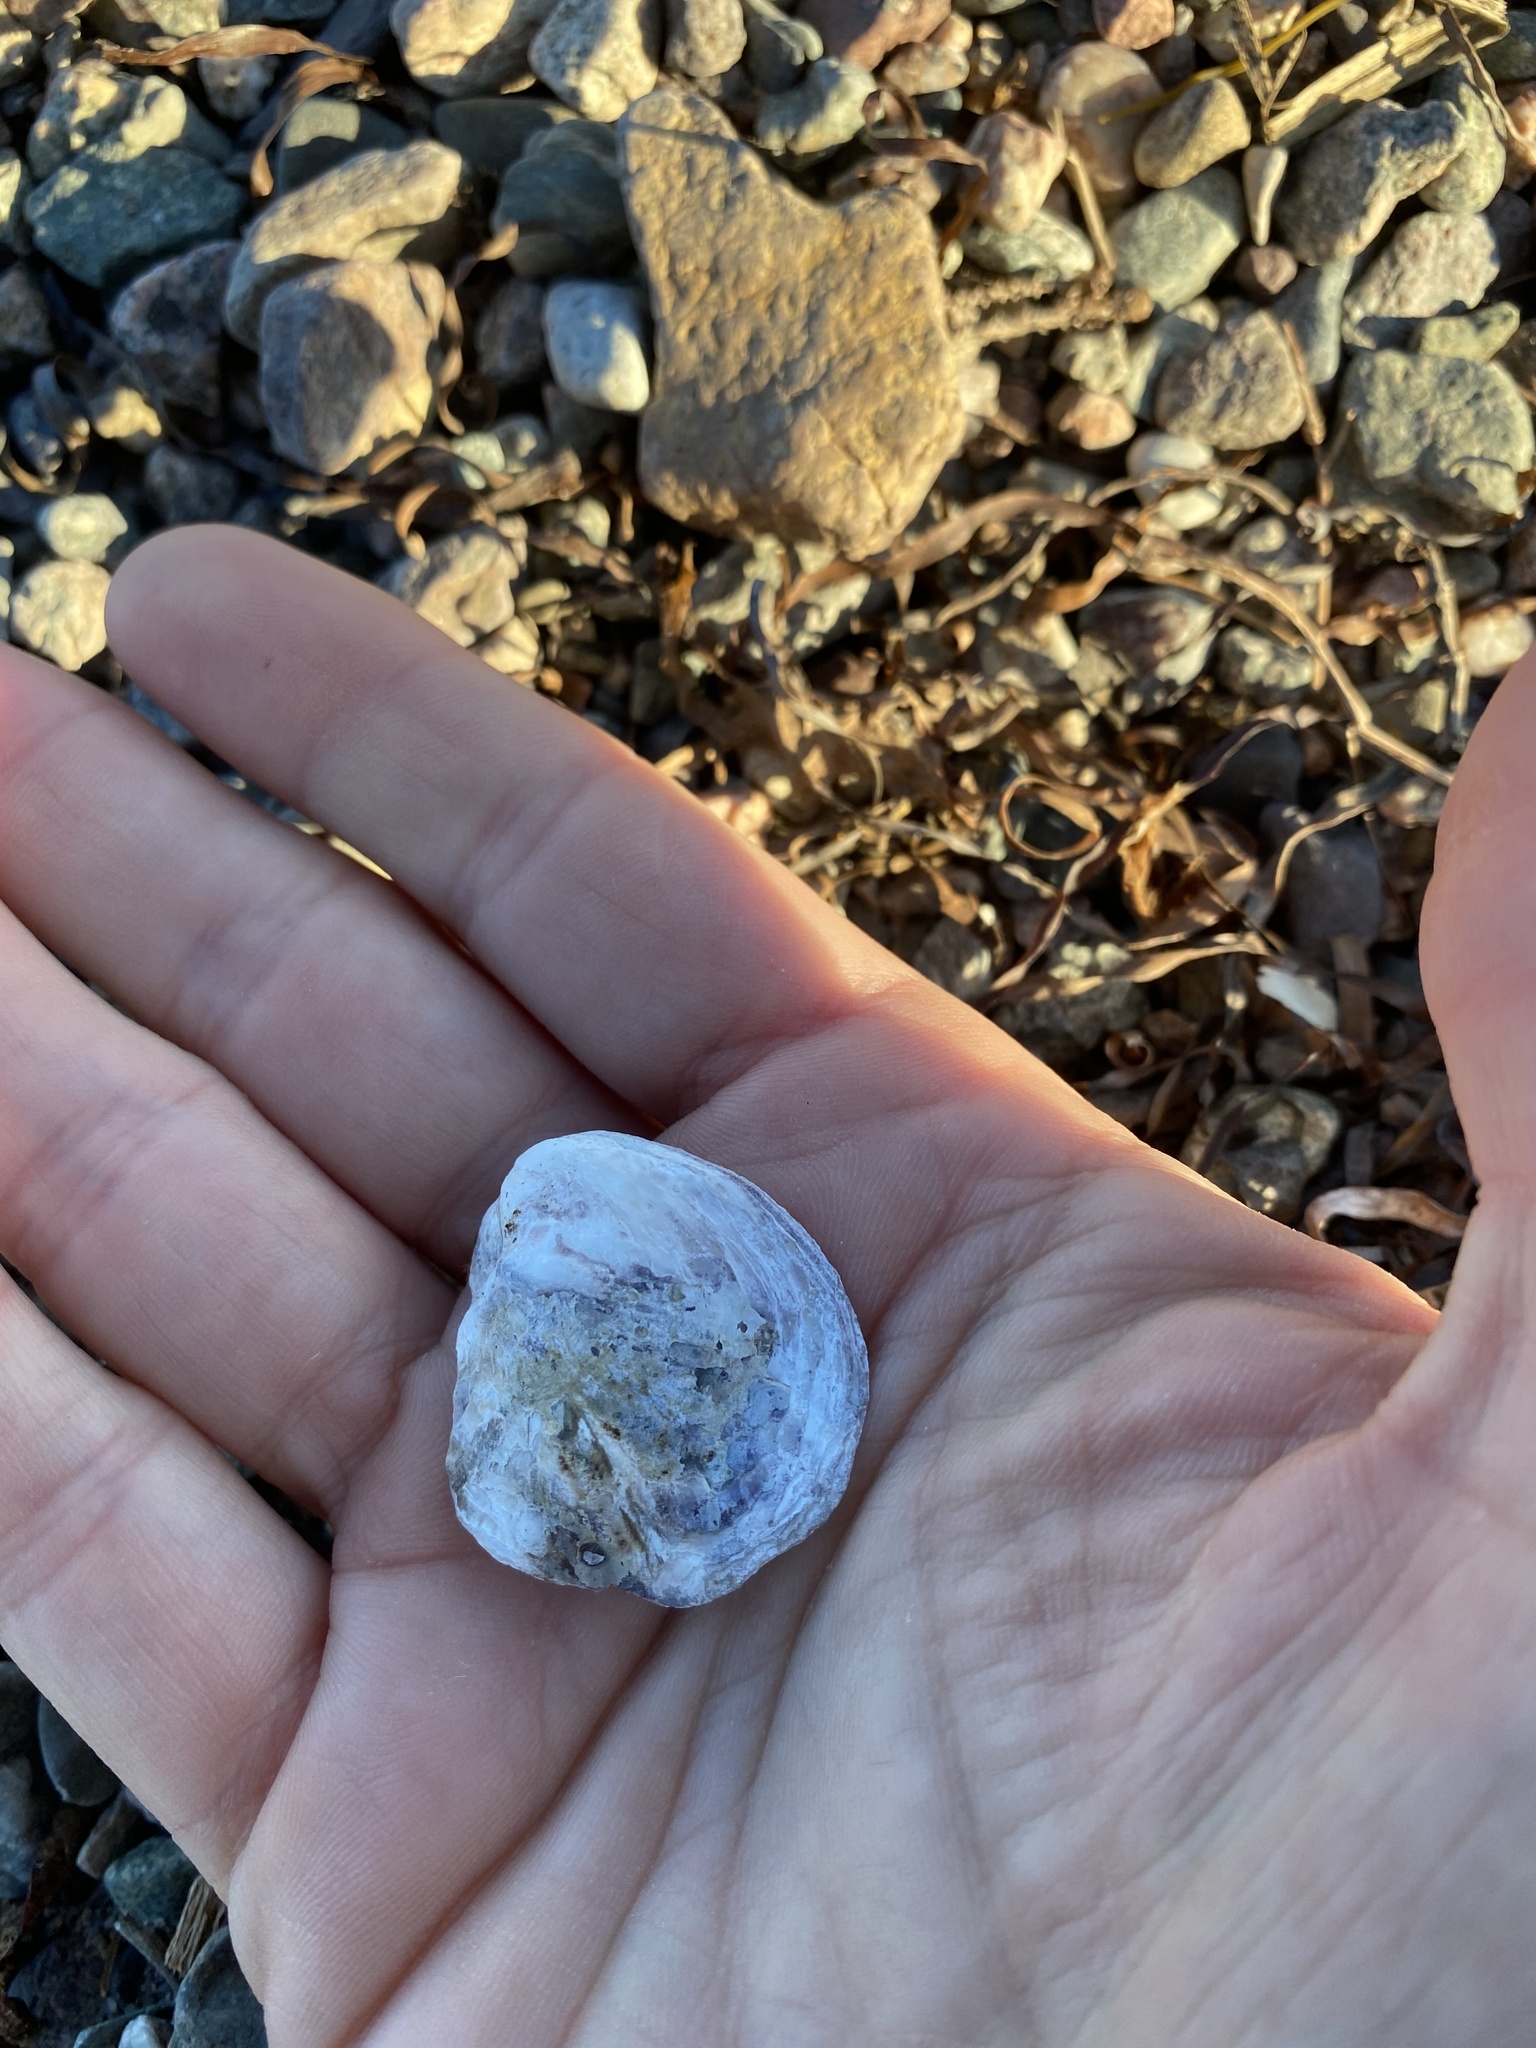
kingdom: Animalia
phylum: Mollusca
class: Bivalvia
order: Ostreida
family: Ostreidae
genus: Crassostrea
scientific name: Crassostrea virginica
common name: American oyster
